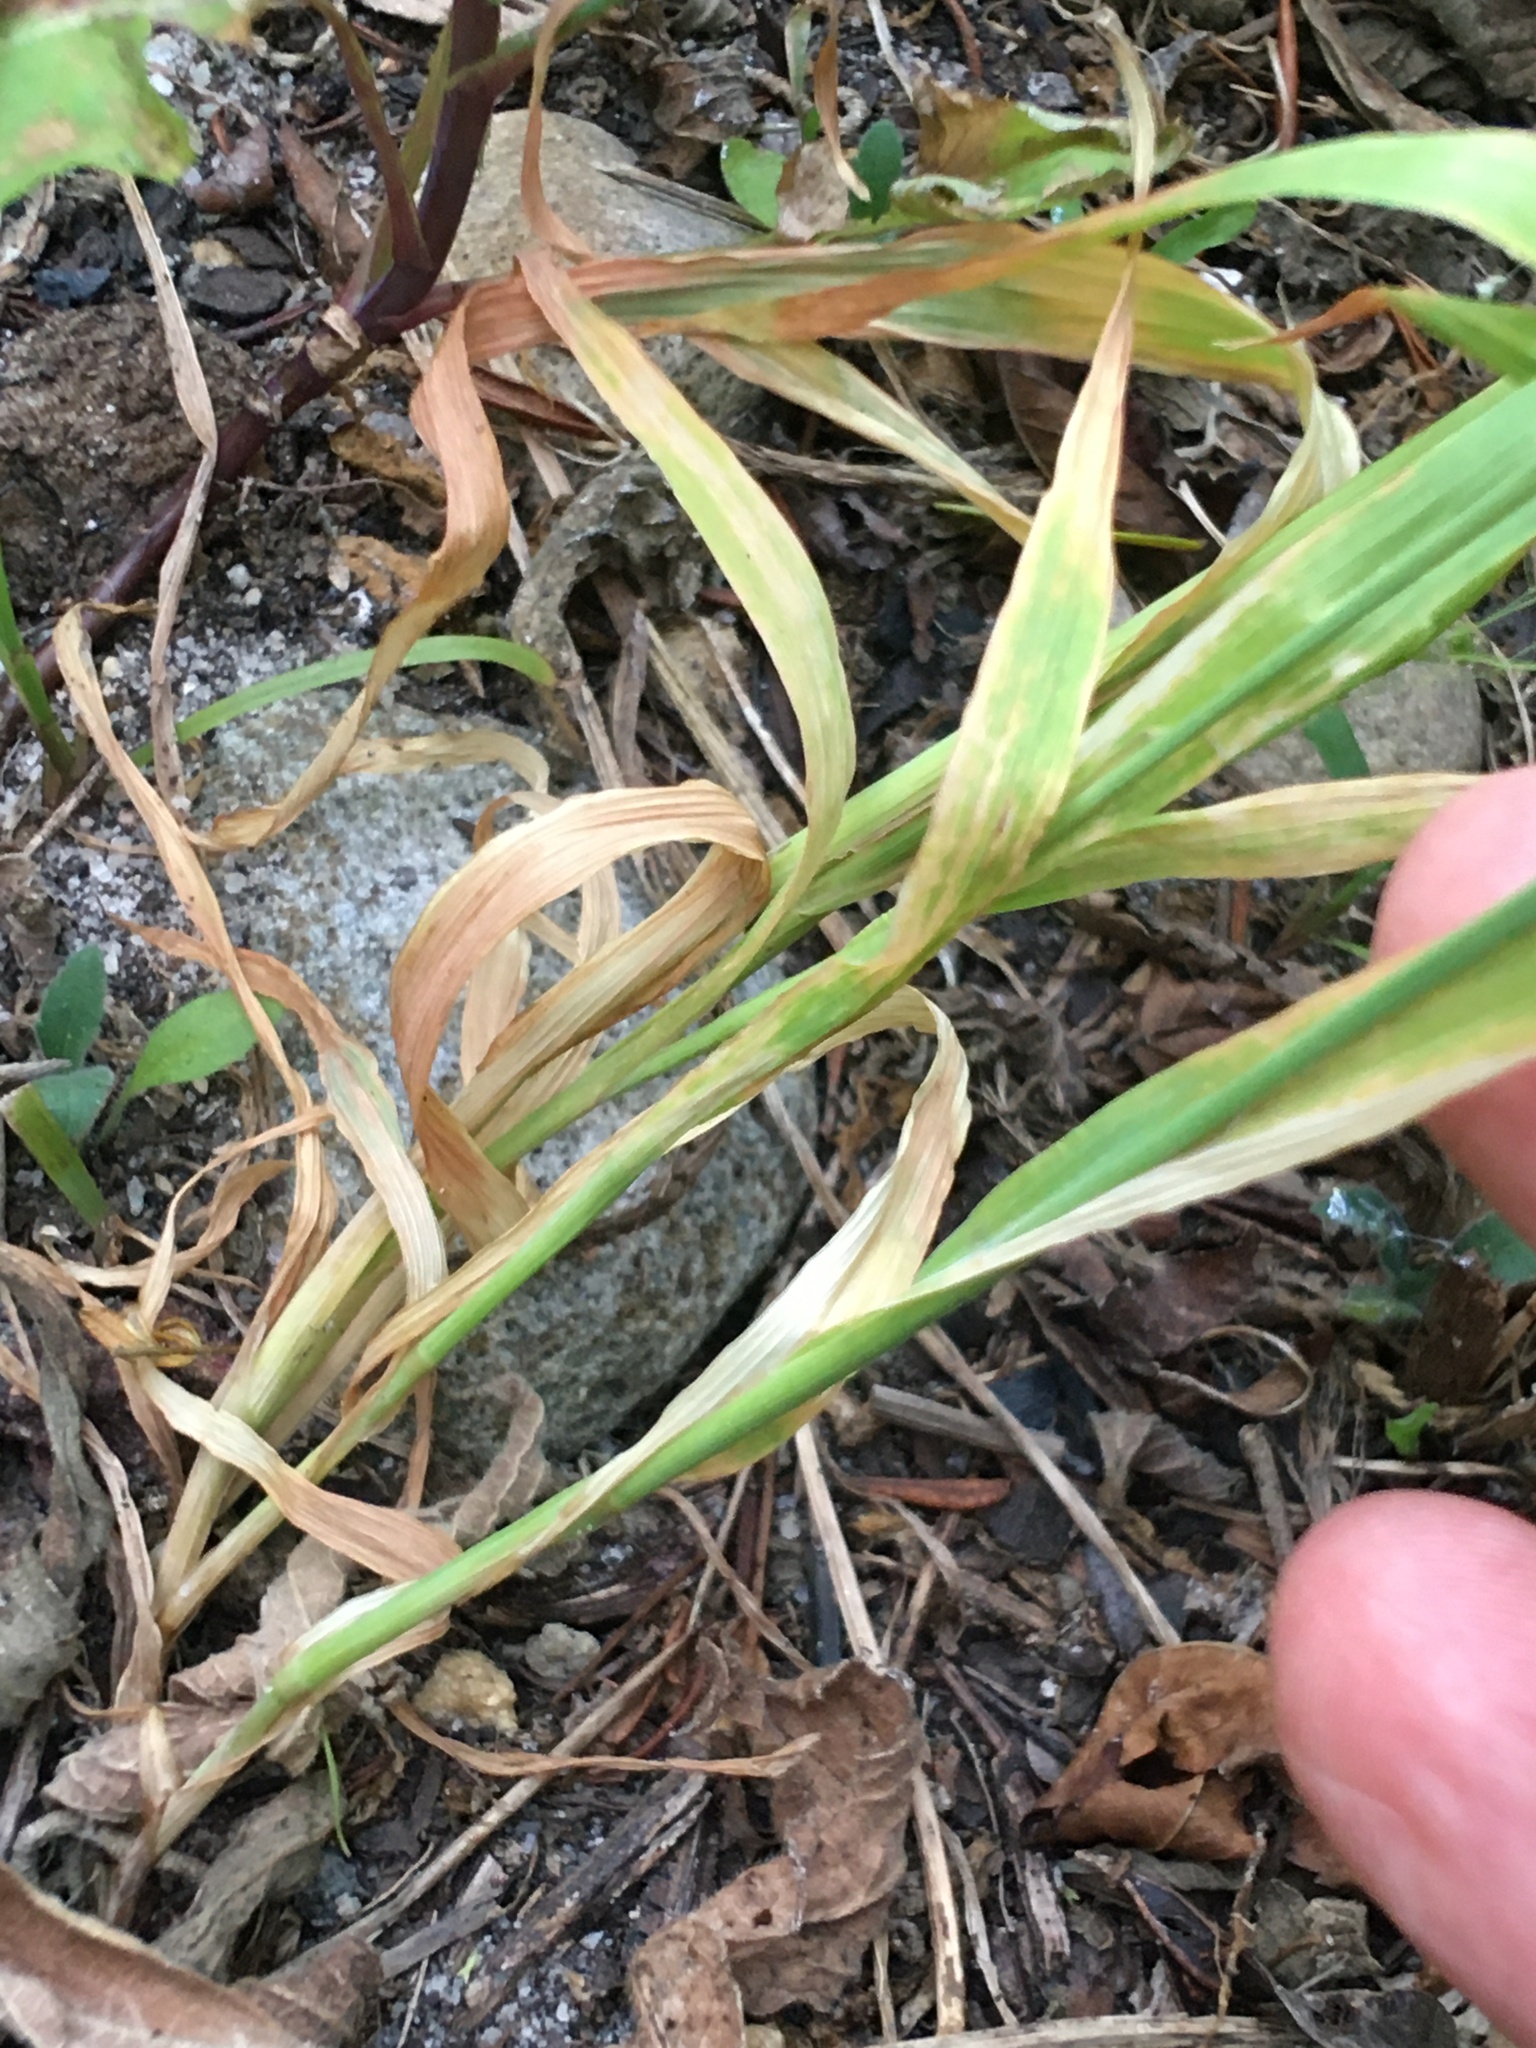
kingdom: Plantae
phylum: Tracheophyta
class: Liliopsida
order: Poales
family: Poaceae
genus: Briza
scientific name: Briza minor
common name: Lesser quaking-grass
